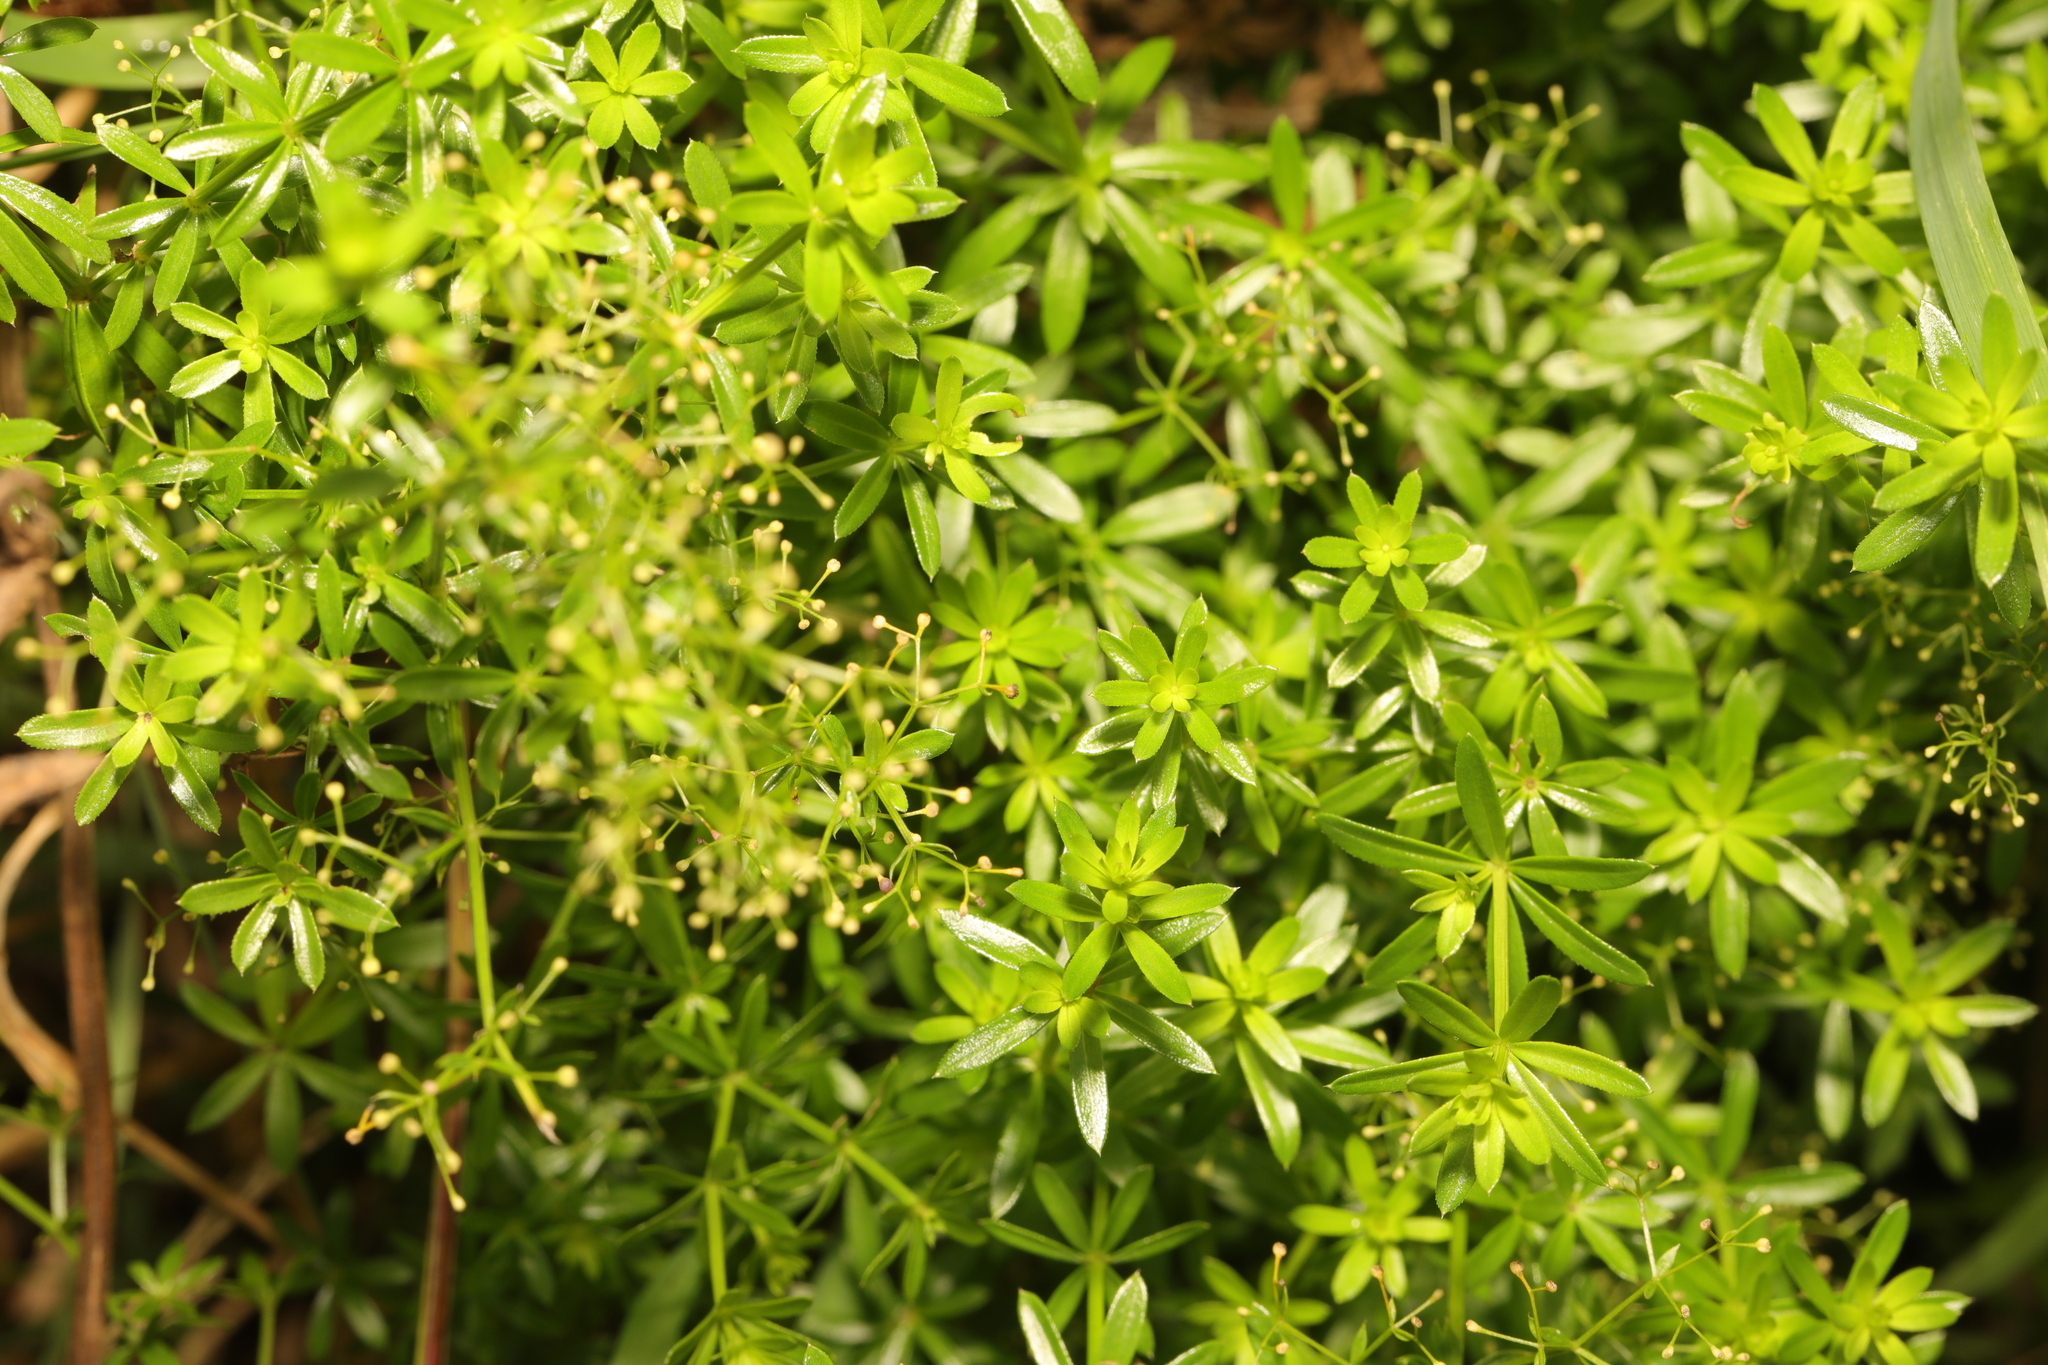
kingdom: Plantae
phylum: Tracheophyta
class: Magnoliopsida
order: Gentianales
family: Rubiaceae
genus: Galium
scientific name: Galium mollugo
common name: Hedge bedstraw
